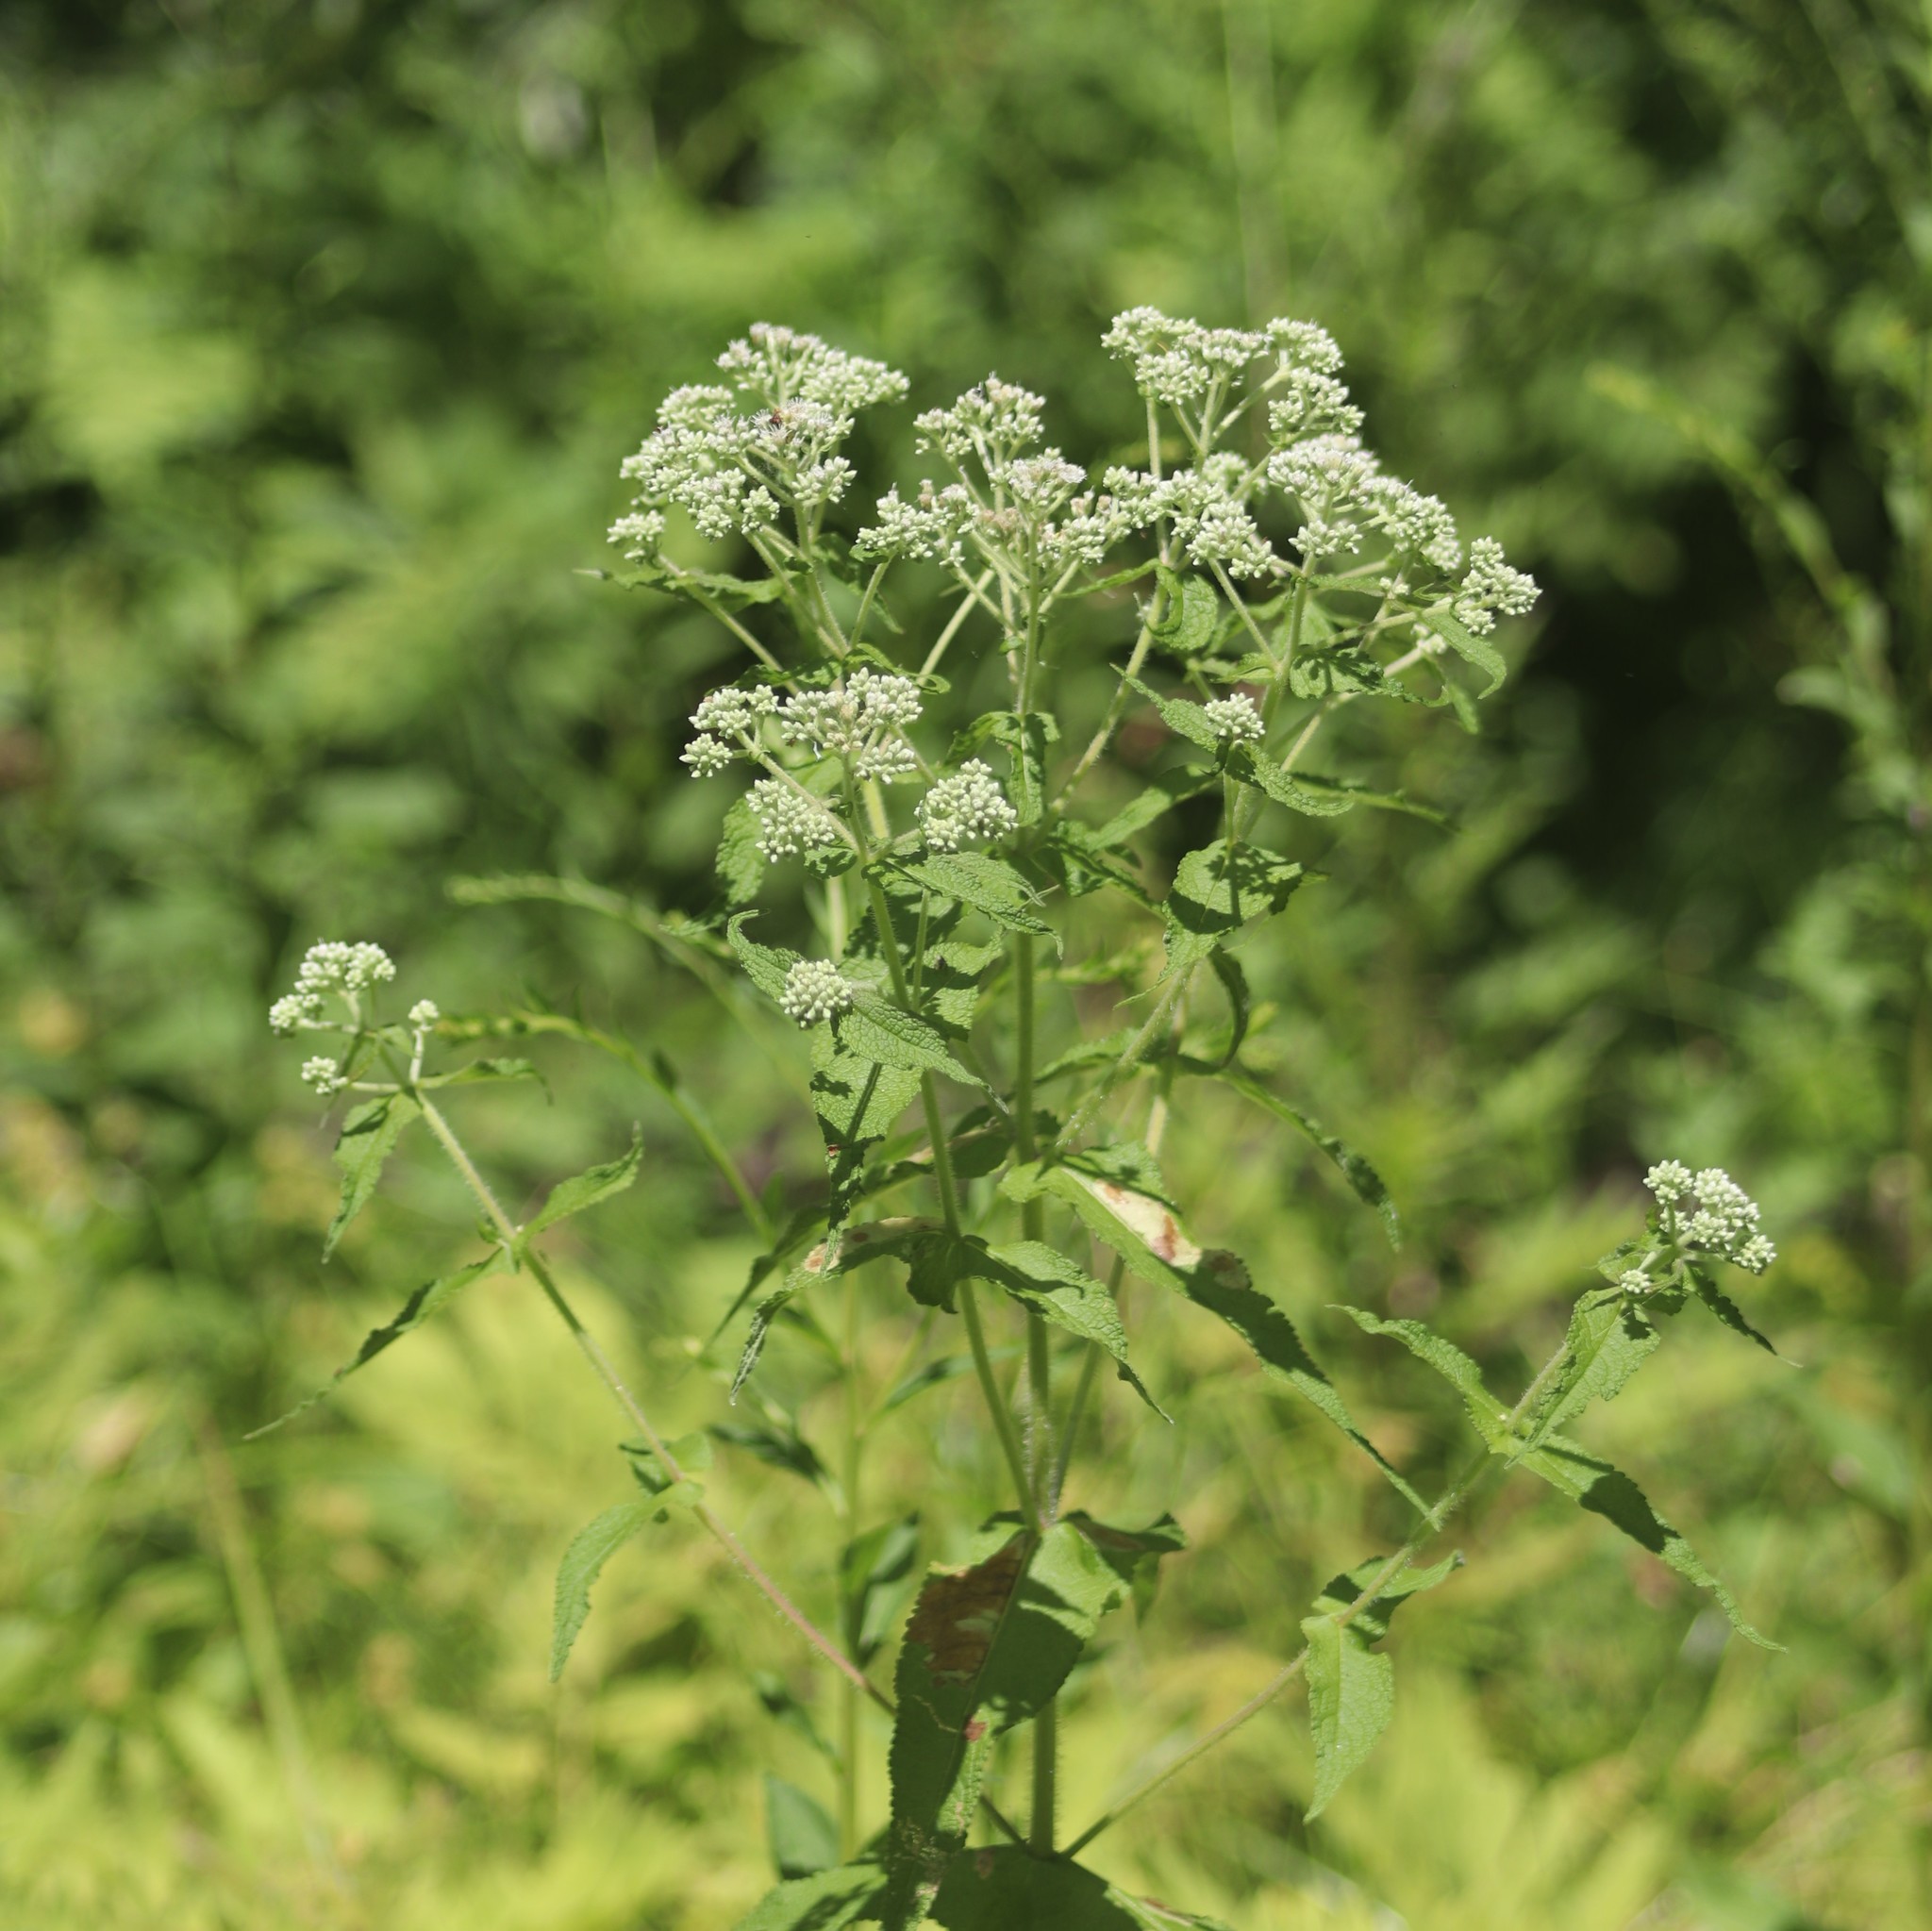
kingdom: Plantae
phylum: Tracheophyta
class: Magnoliopsida
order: Asterales
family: Asteraceae
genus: Eupatorium
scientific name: Eupatorium perfoliatum
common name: Boneset
